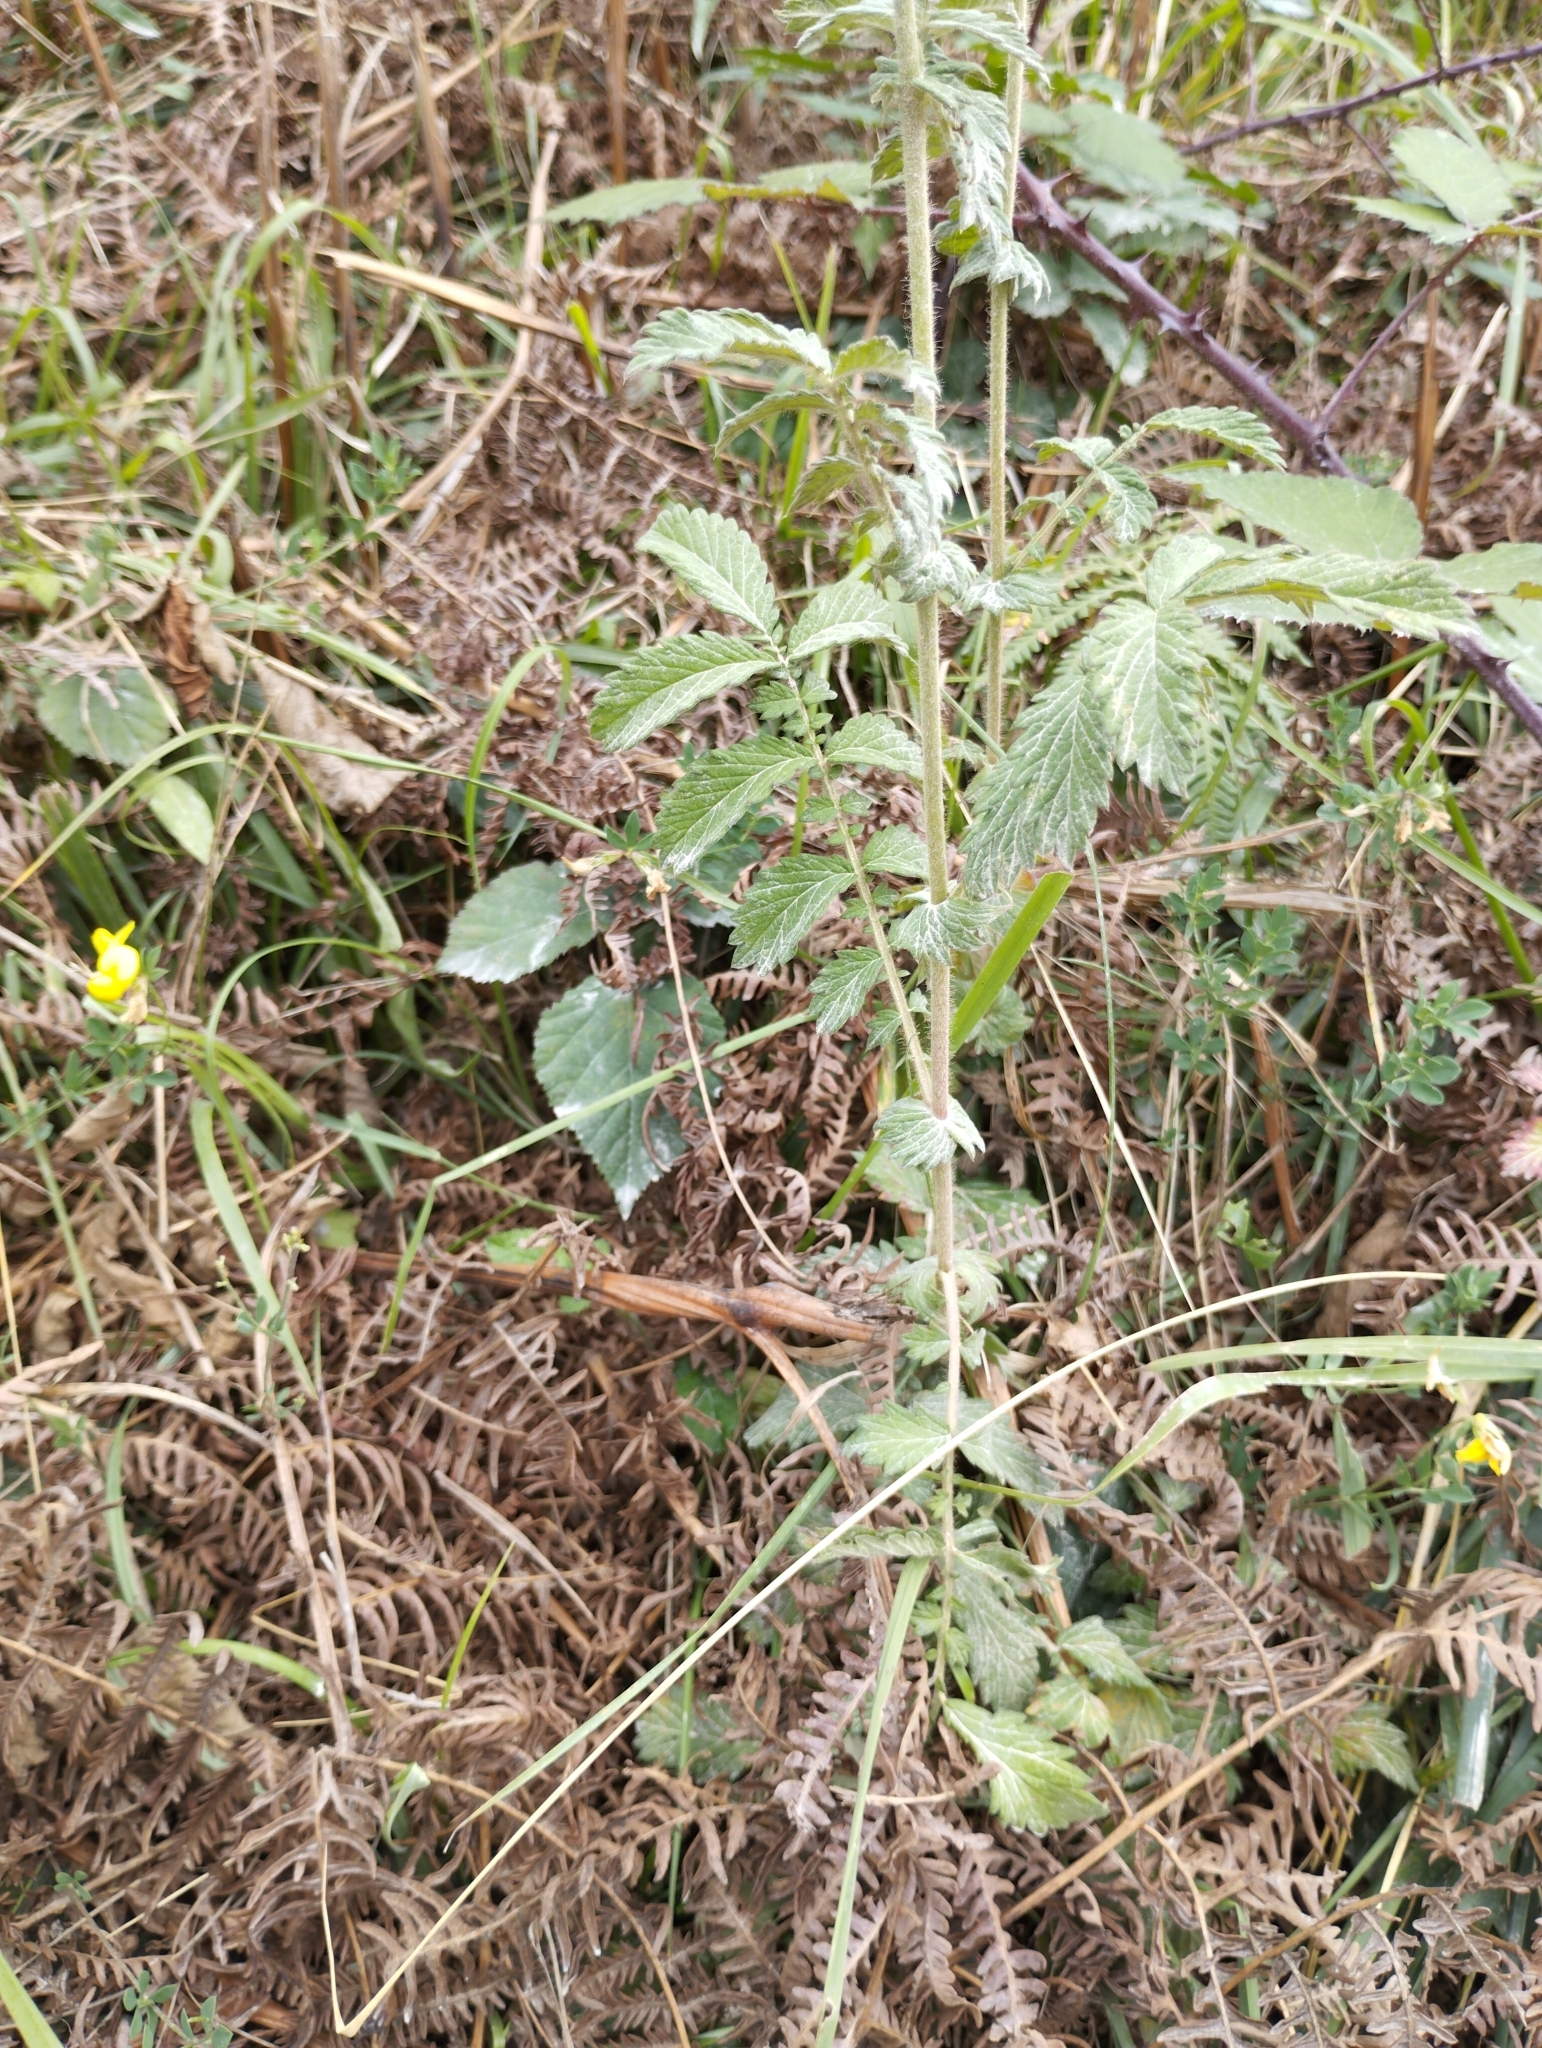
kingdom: Plantae
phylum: Tracheophyta
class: Magnoliopsida
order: Rosales
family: Rosaceae
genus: Agrimonia
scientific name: Agrimonia eupatoria
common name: Agrimony
